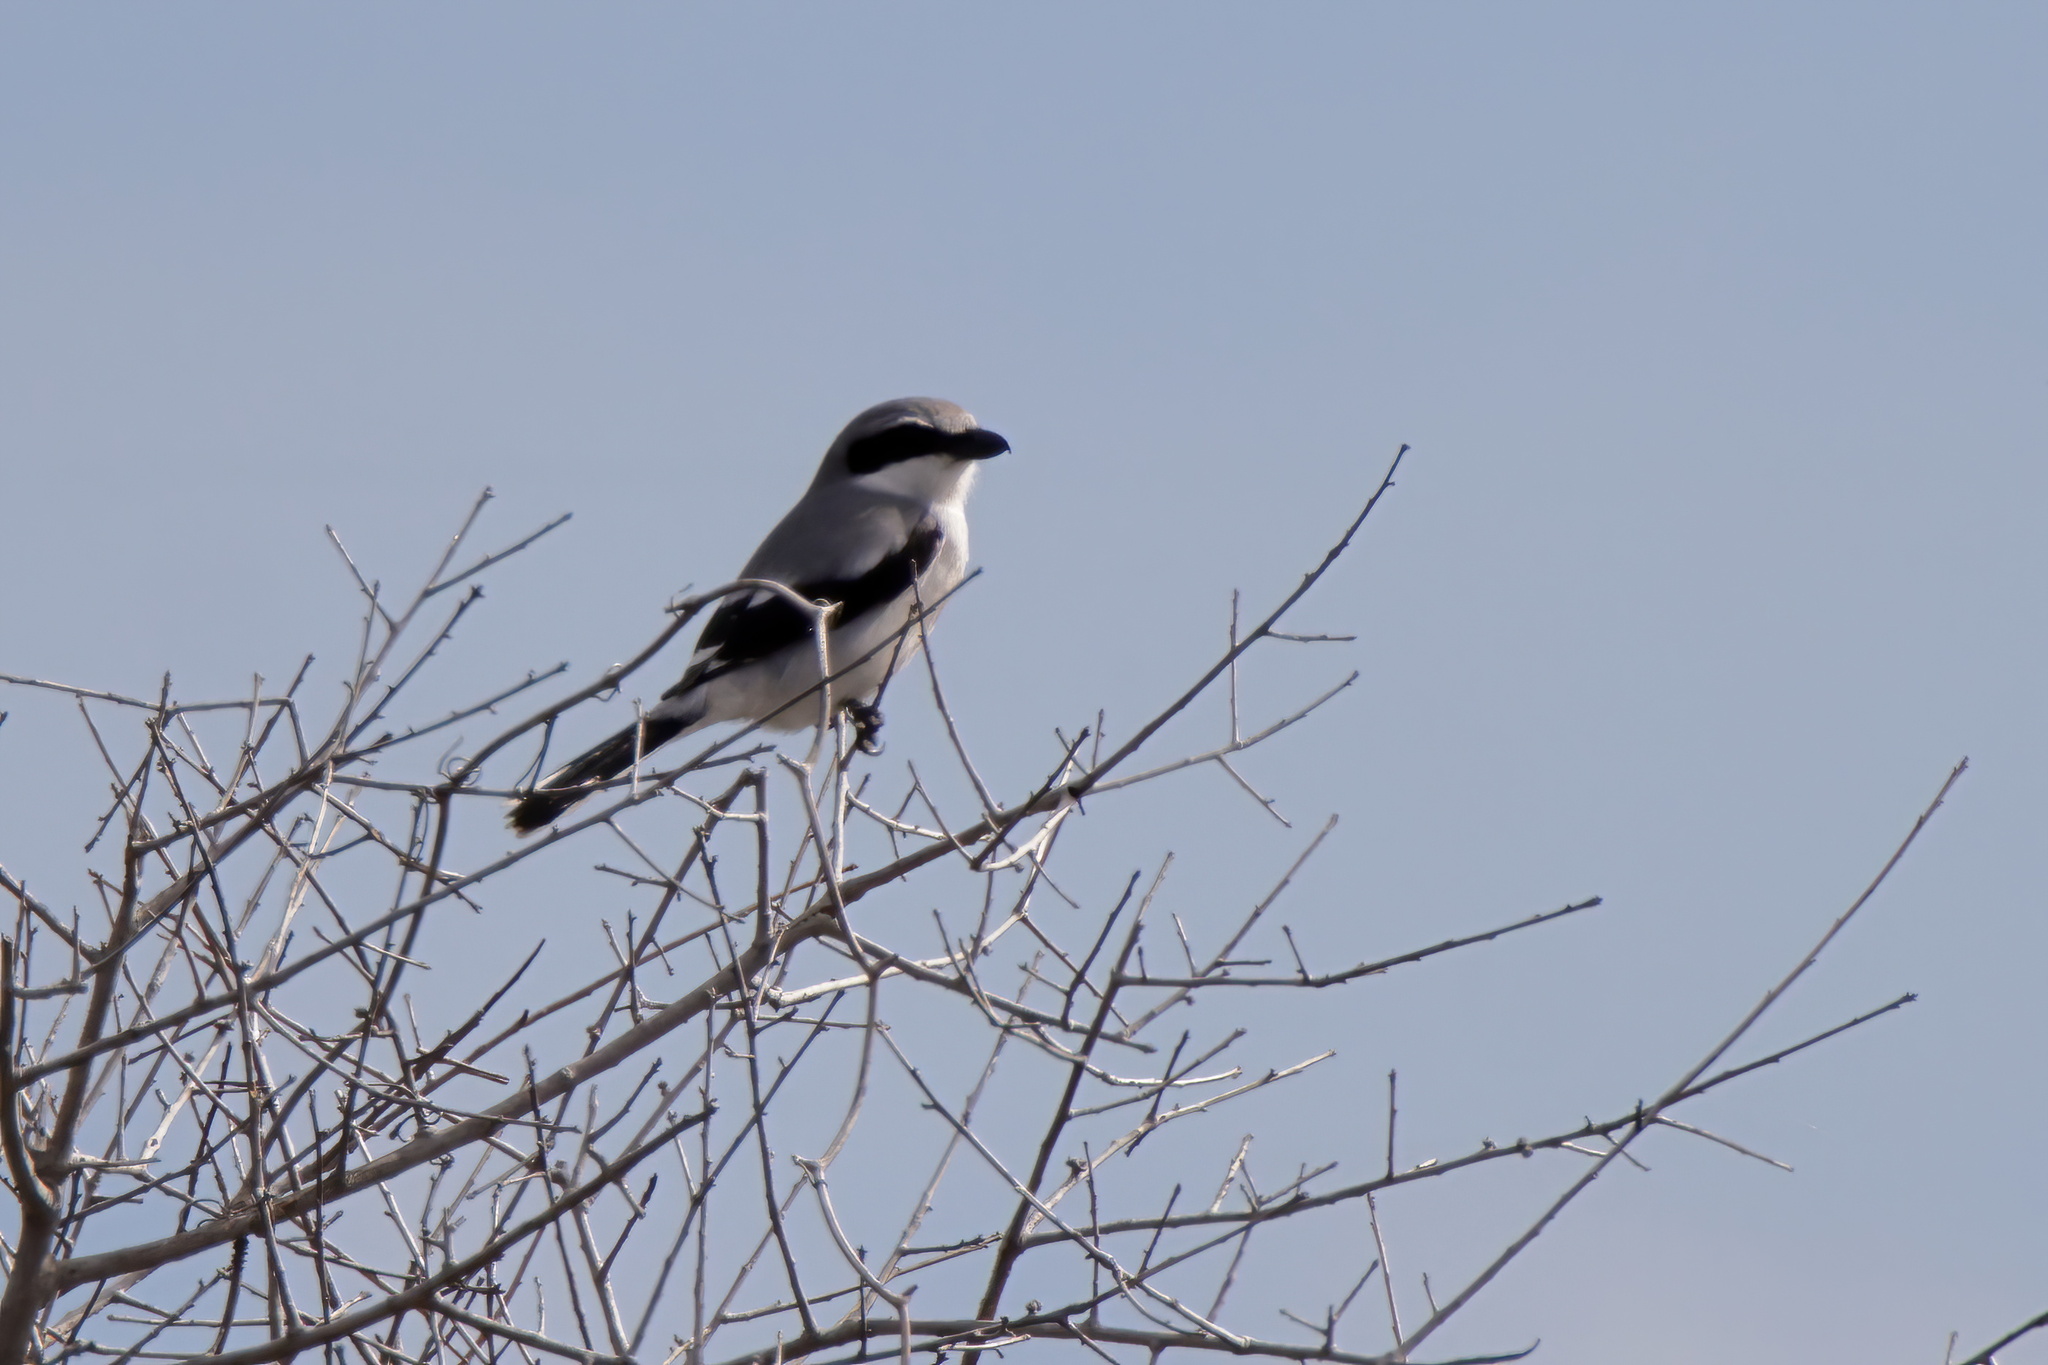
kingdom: Animalia
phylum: Chordata
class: Aves
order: Passeriformes
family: Laniidae
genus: Lanius
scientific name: Lanius ludovicianus
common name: Loggerhead shrike
